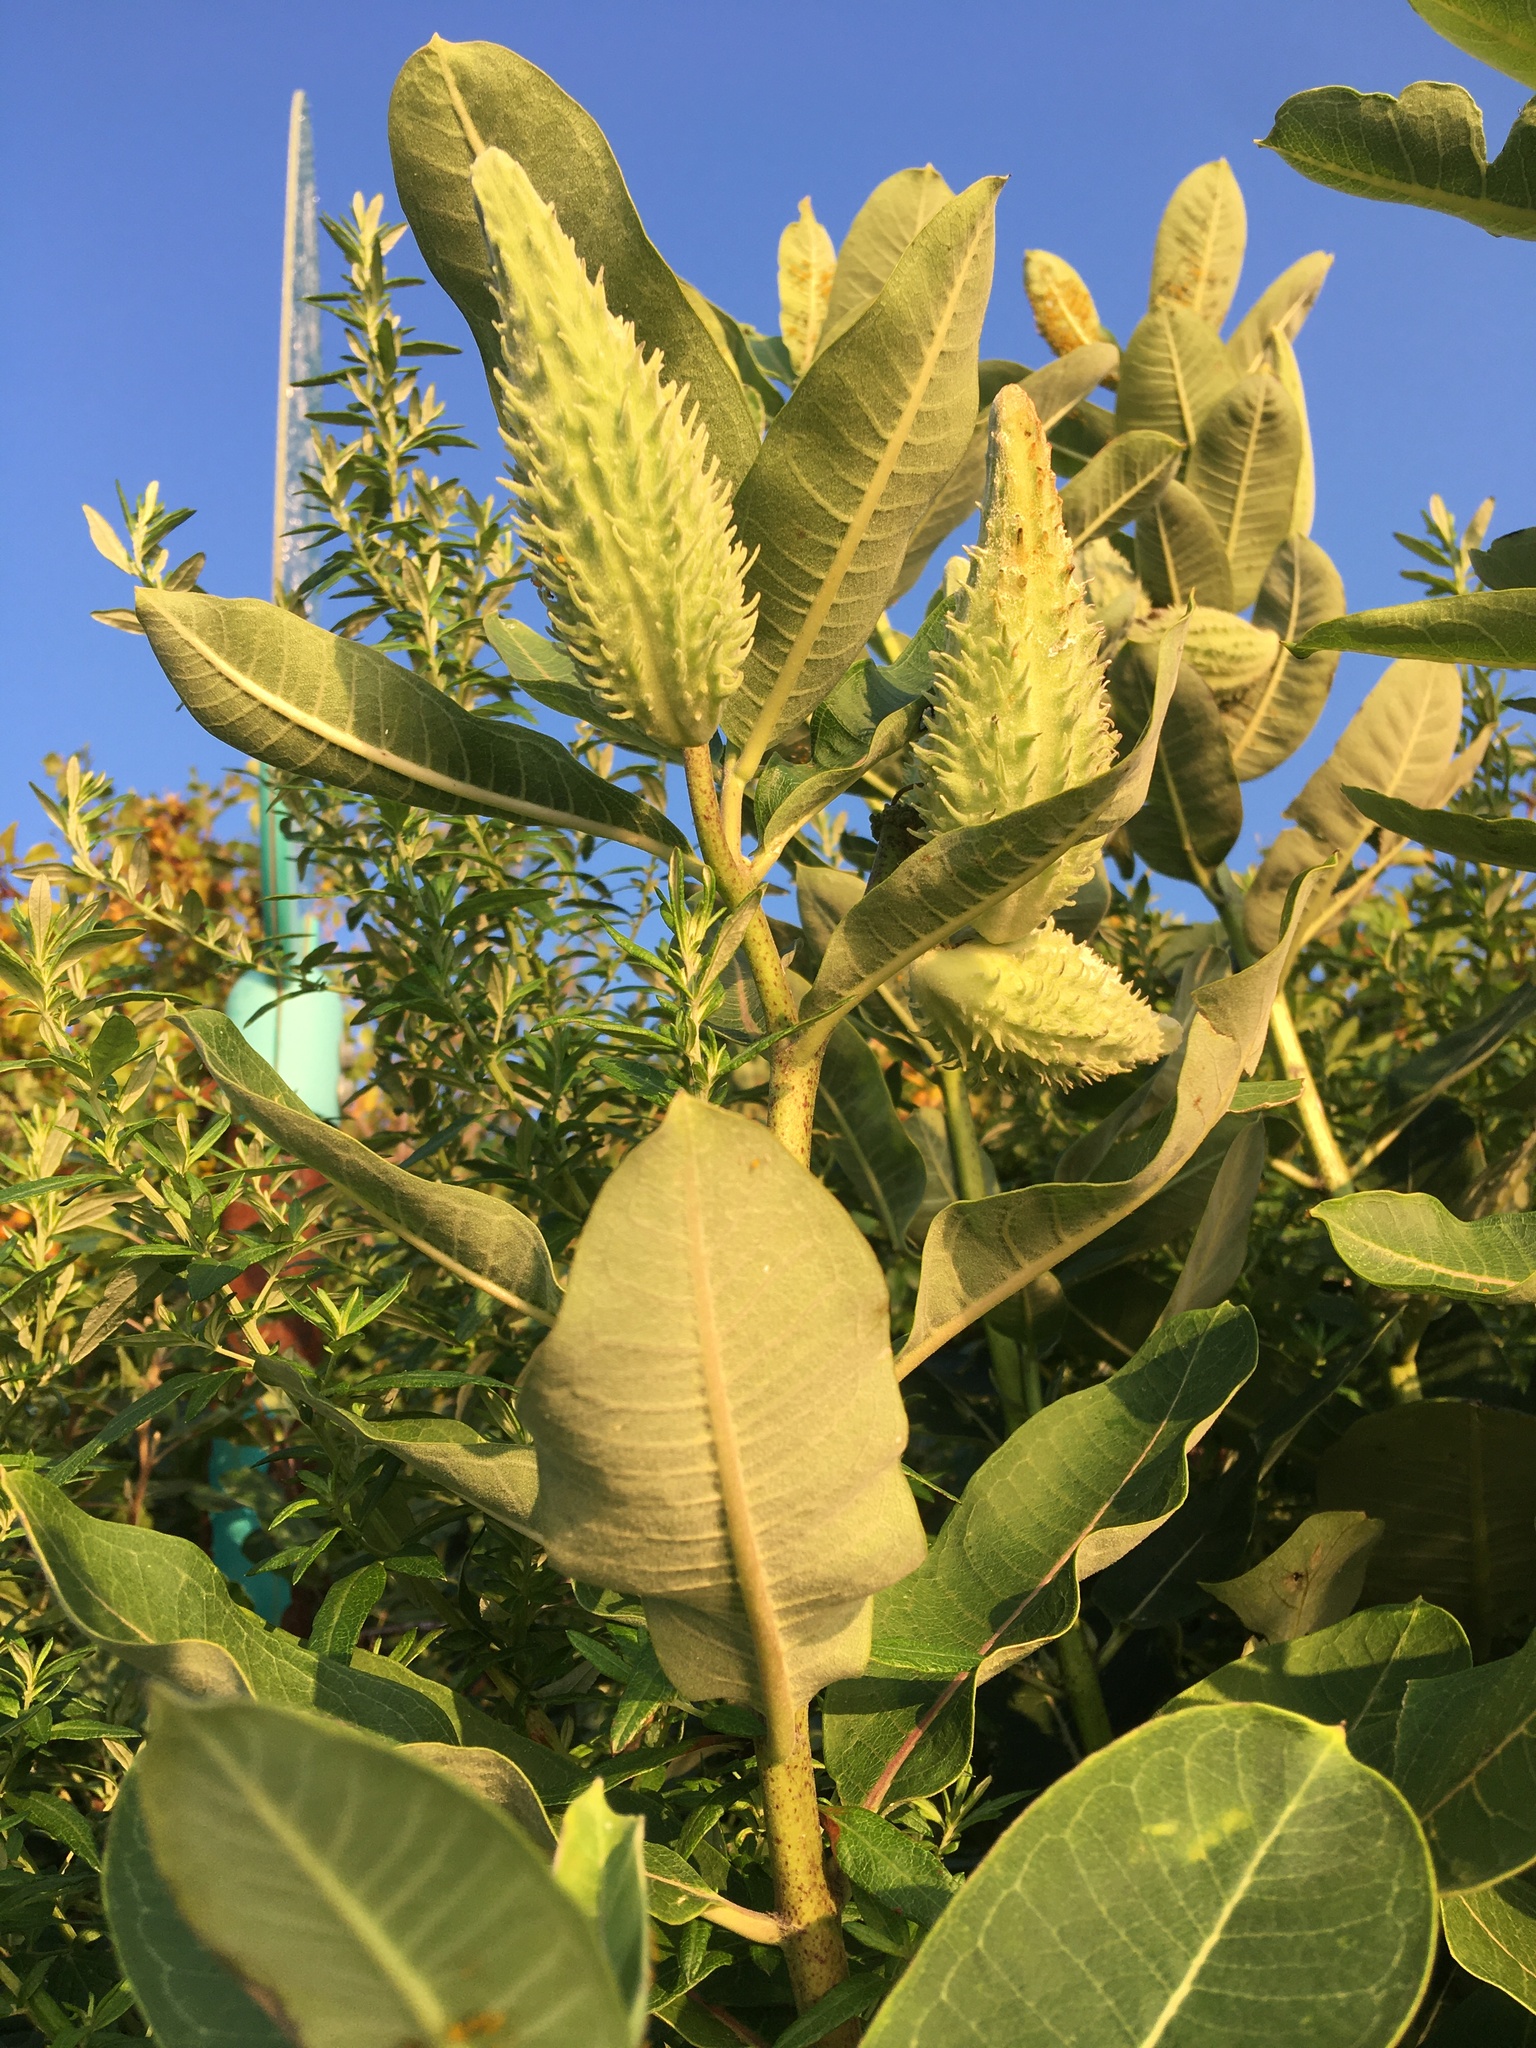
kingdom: Plantae
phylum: Tracheophyta
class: Magnoliopsida
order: Gentianales
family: Apocynaceae
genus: Asclepias
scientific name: Asclepias syriaca
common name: Common milkweed
